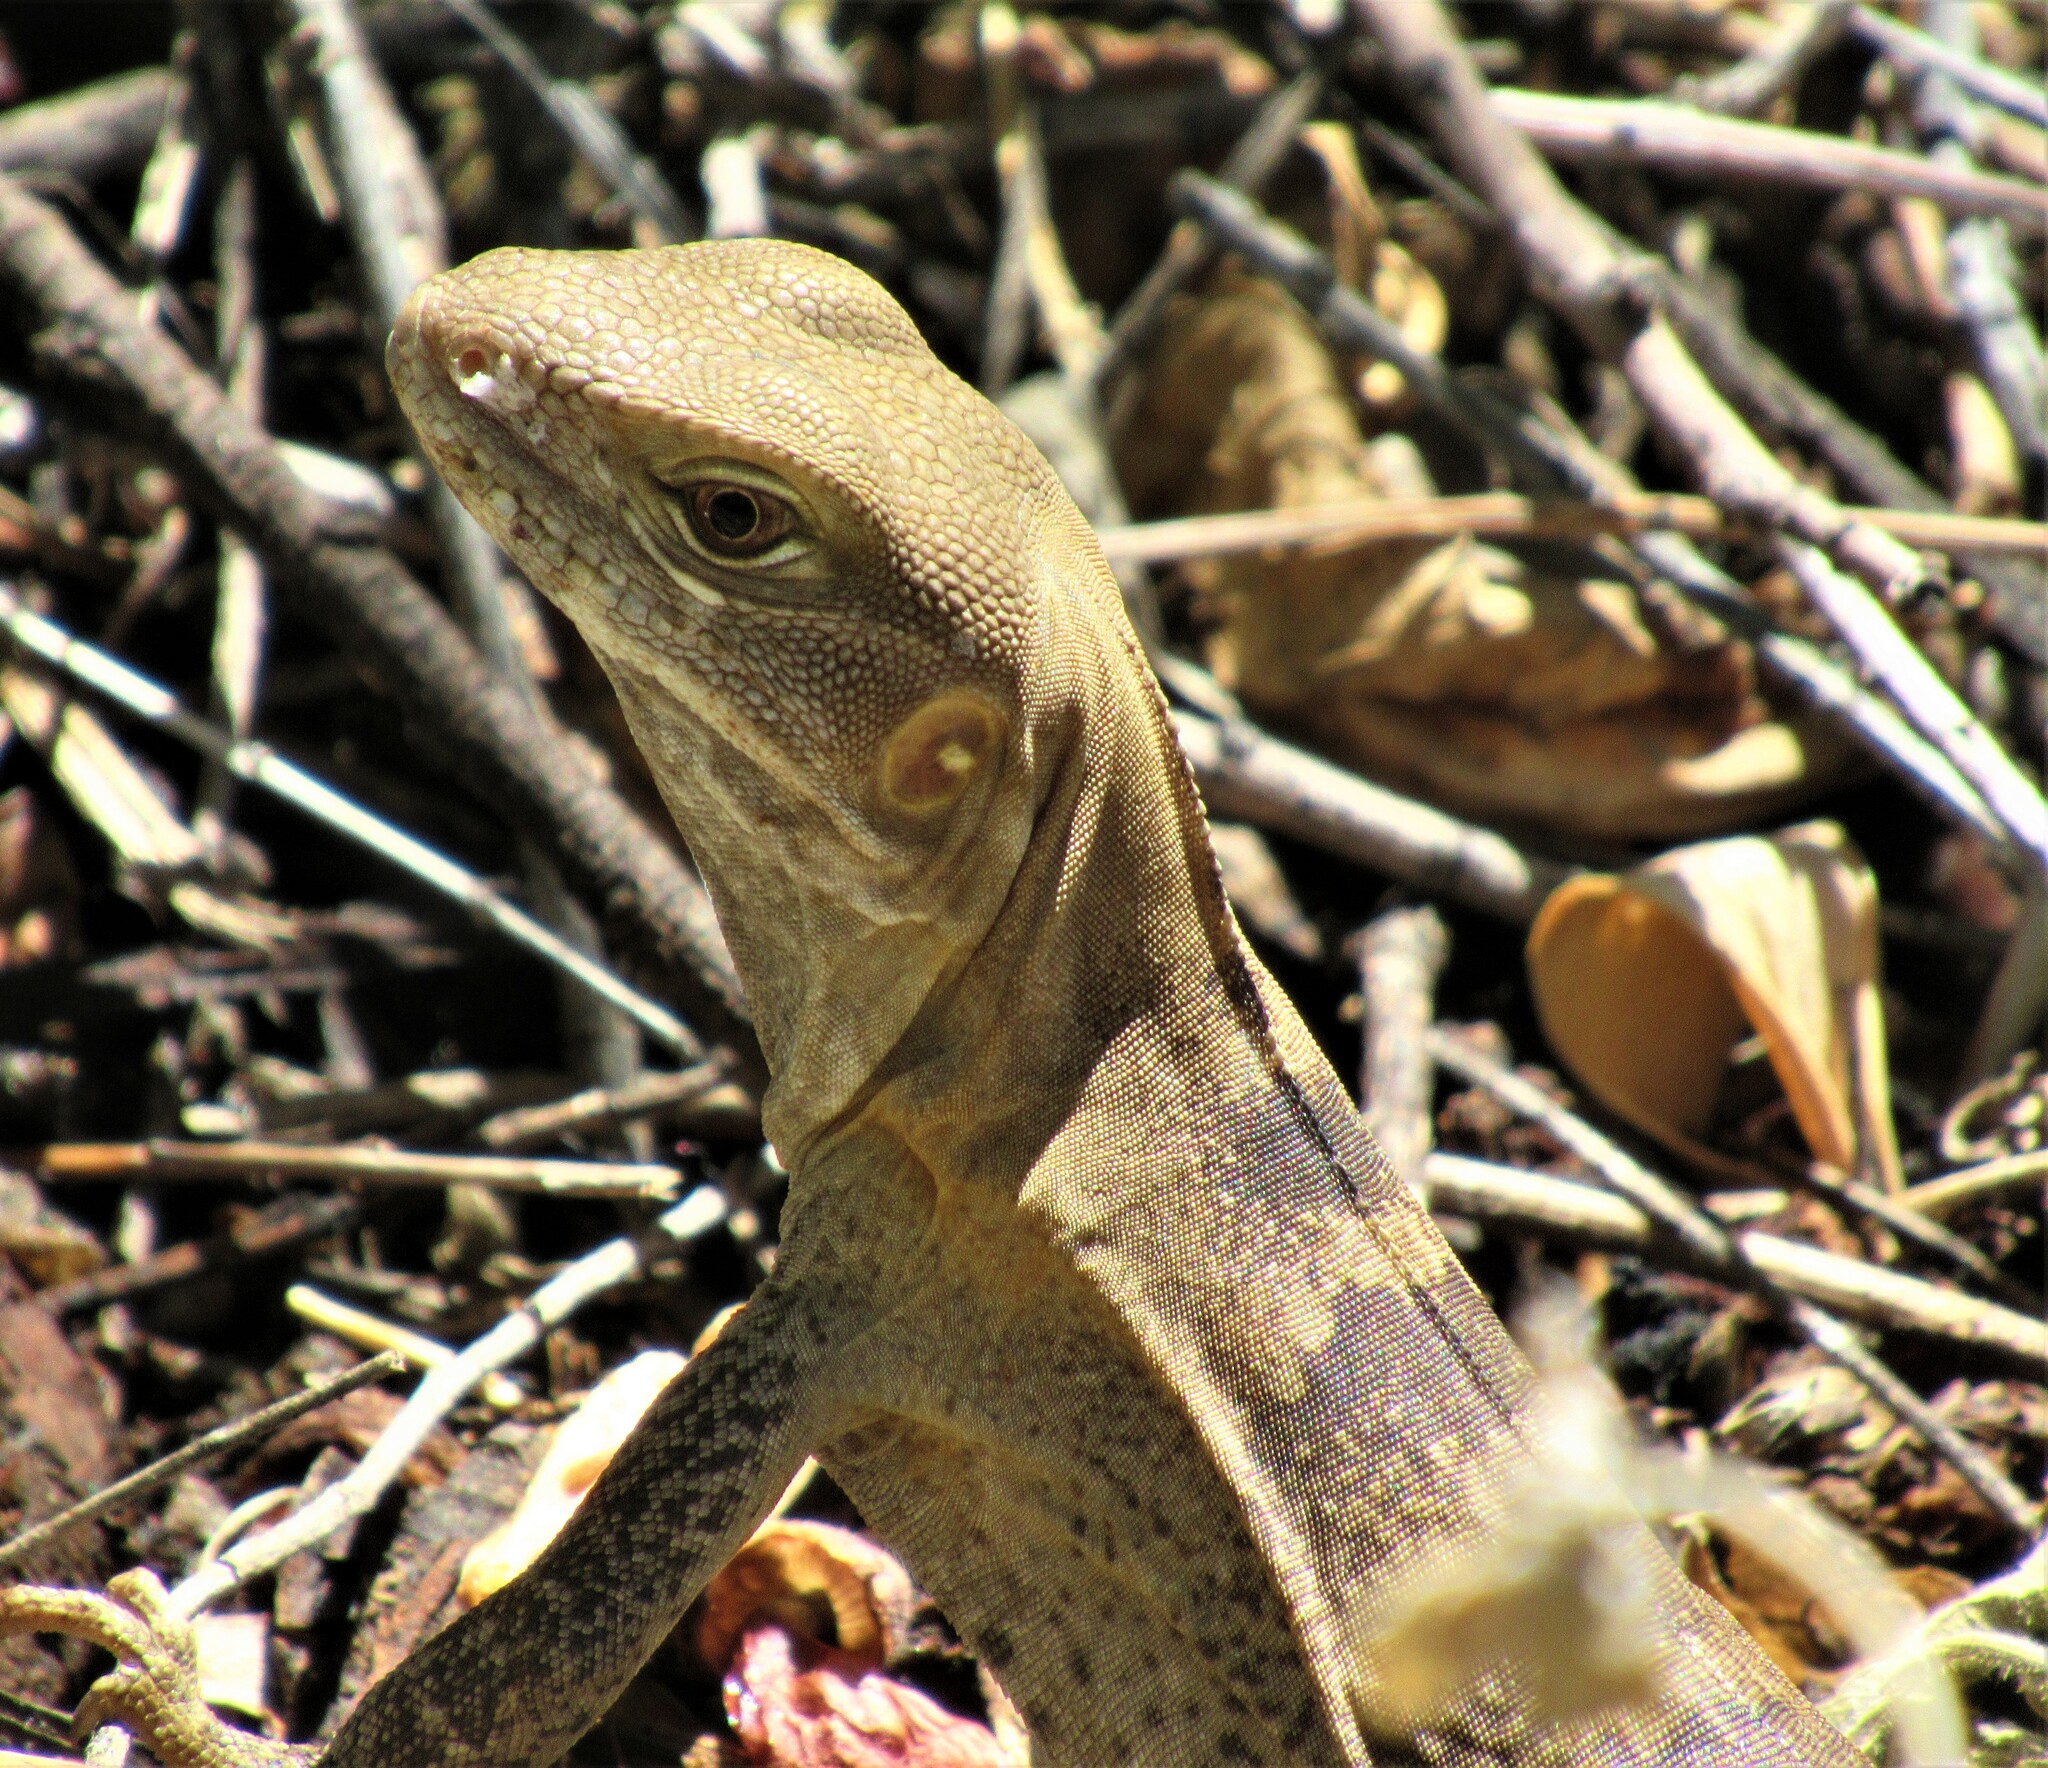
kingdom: Animalia
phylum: Chordata
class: Squamata
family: Iguanidae
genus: Ctenosaura
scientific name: Ctenosaura
